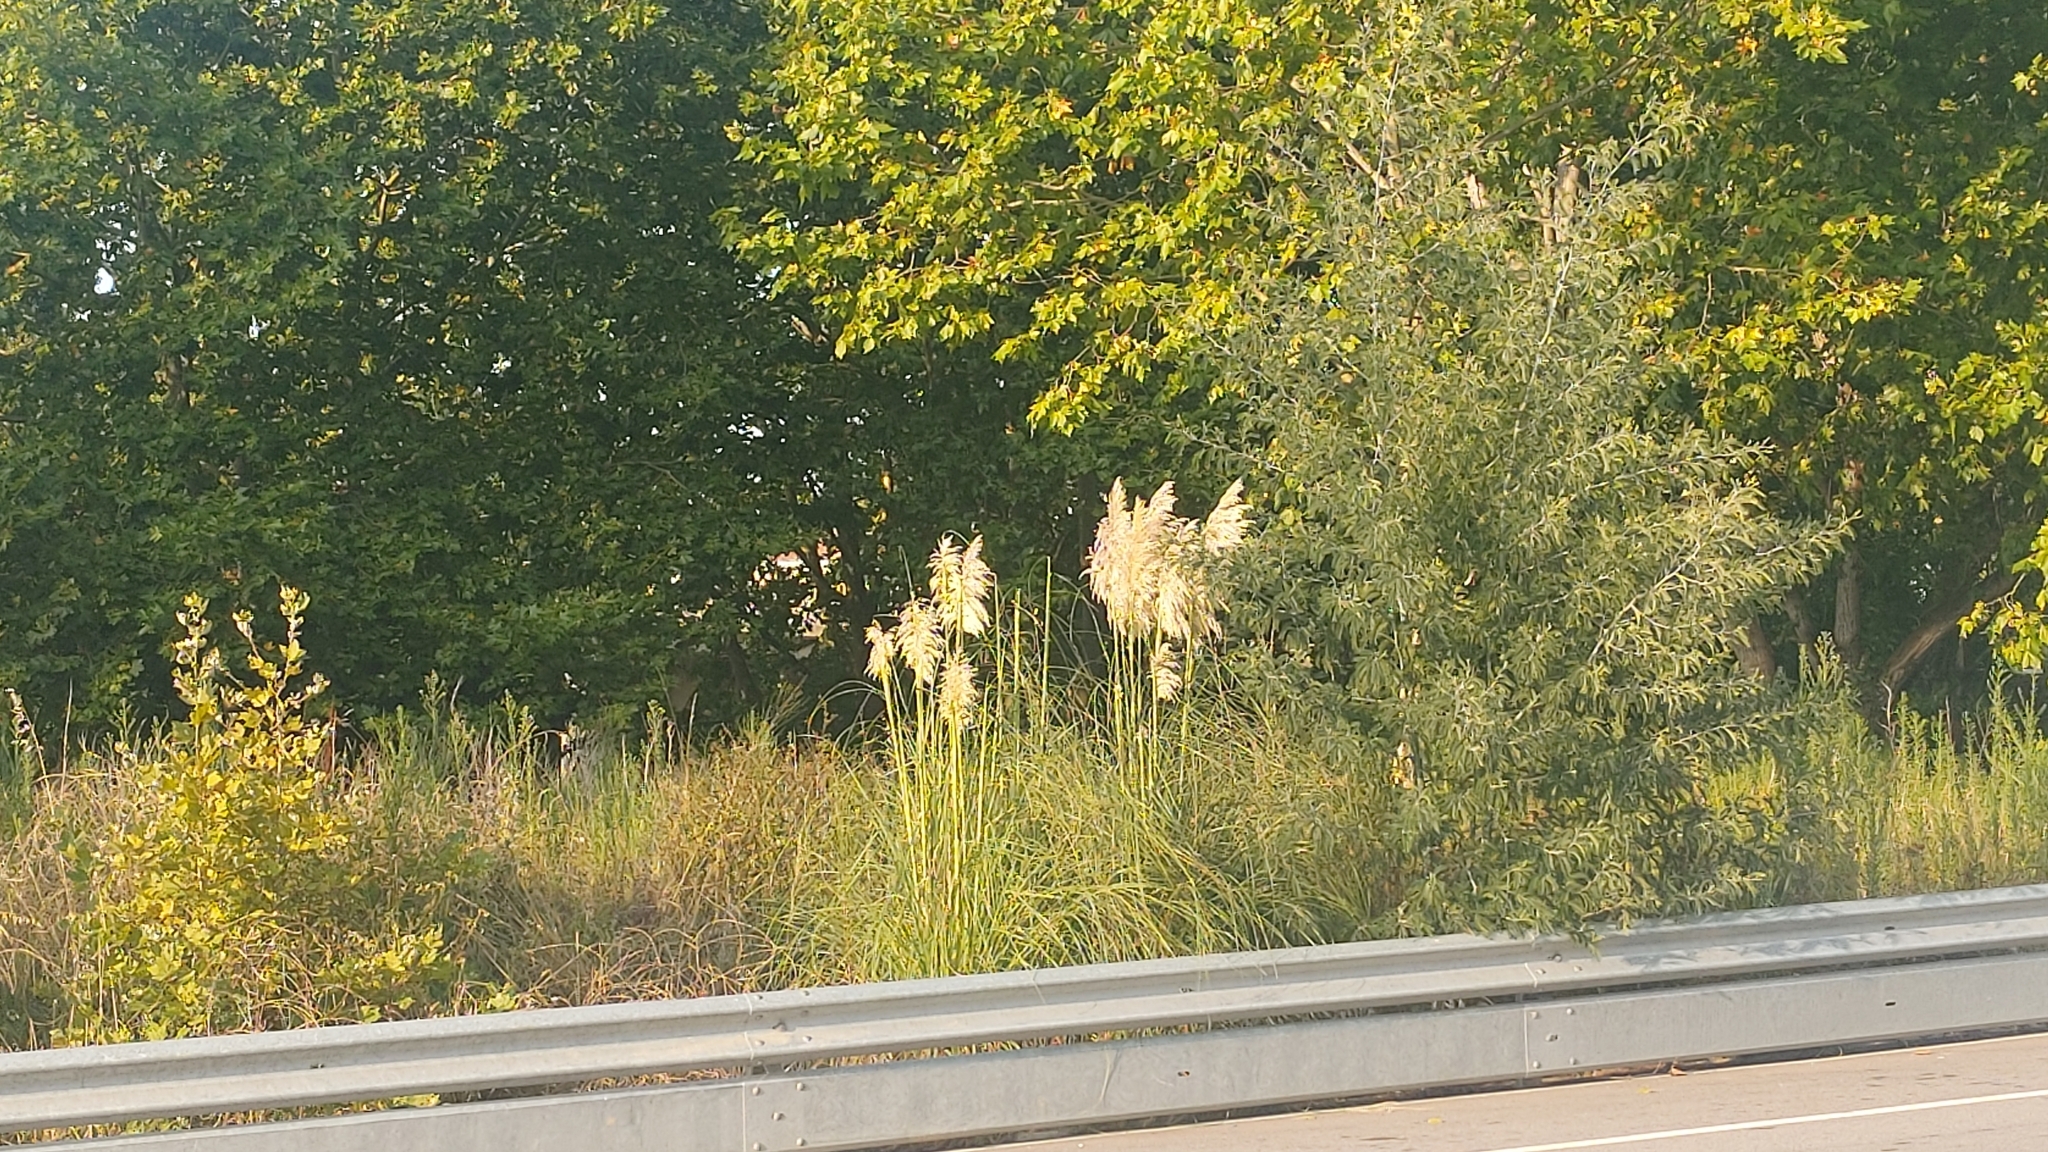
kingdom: Plantae
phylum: Tracheophyta
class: Liliopsida
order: Poales
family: Poaceae
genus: Cortaderia
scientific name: Cortaderia selloana
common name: Uruguayan pampas grass
